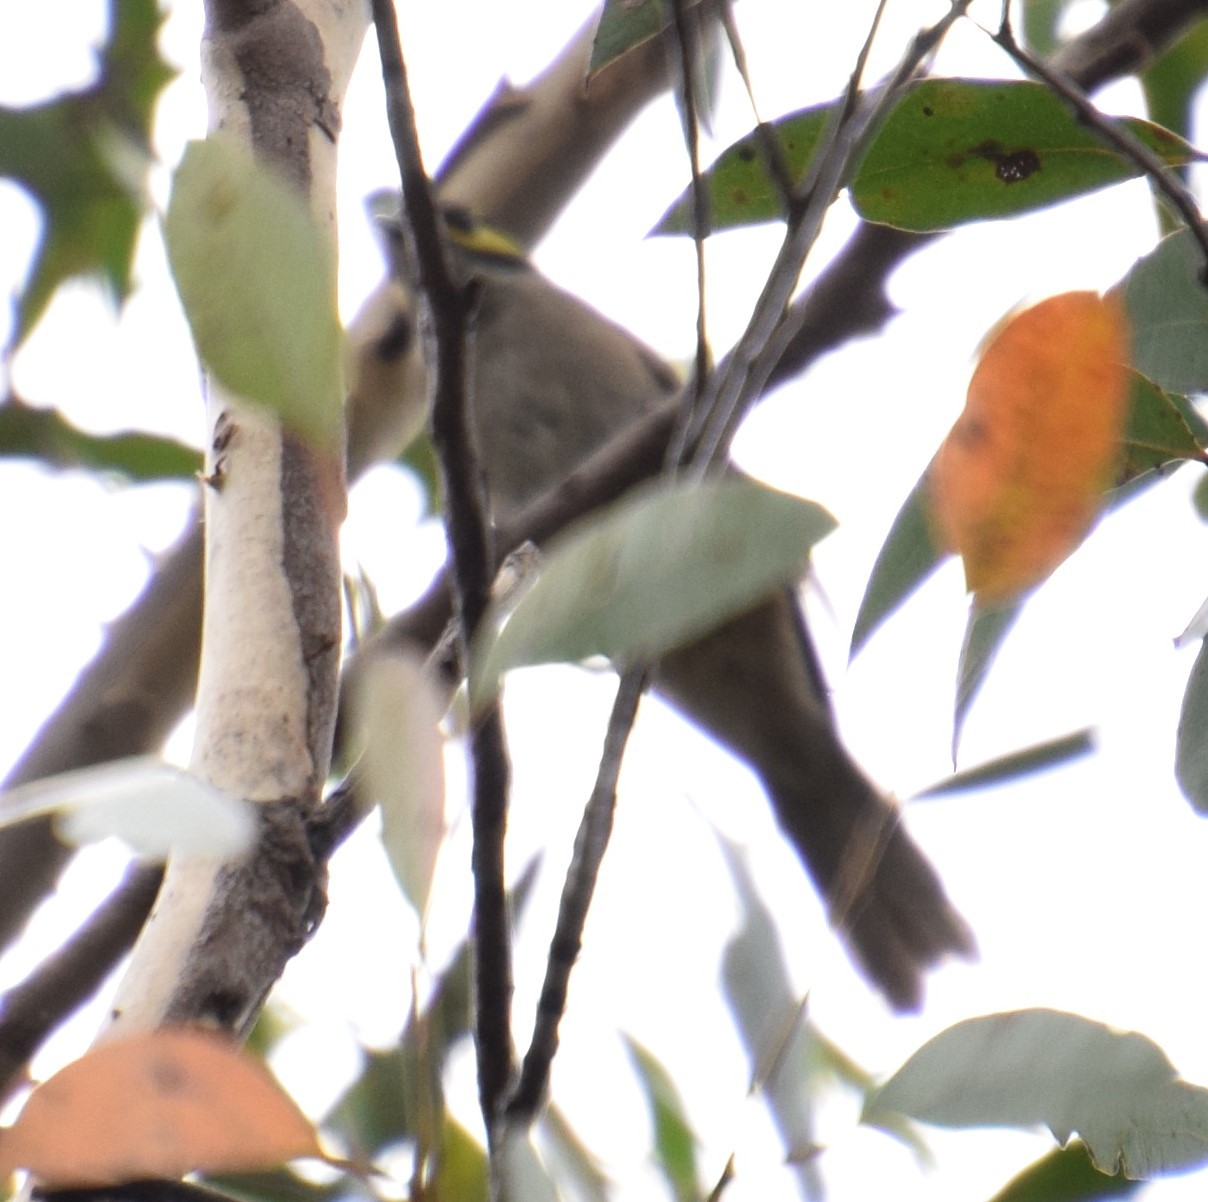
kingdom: Animalia
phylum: Chordata
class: Aves
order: Passeriformes
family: Meliphagidae
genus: Caligavis
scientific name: Caligavis chrysops
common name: Yellow-faced honeyeater
